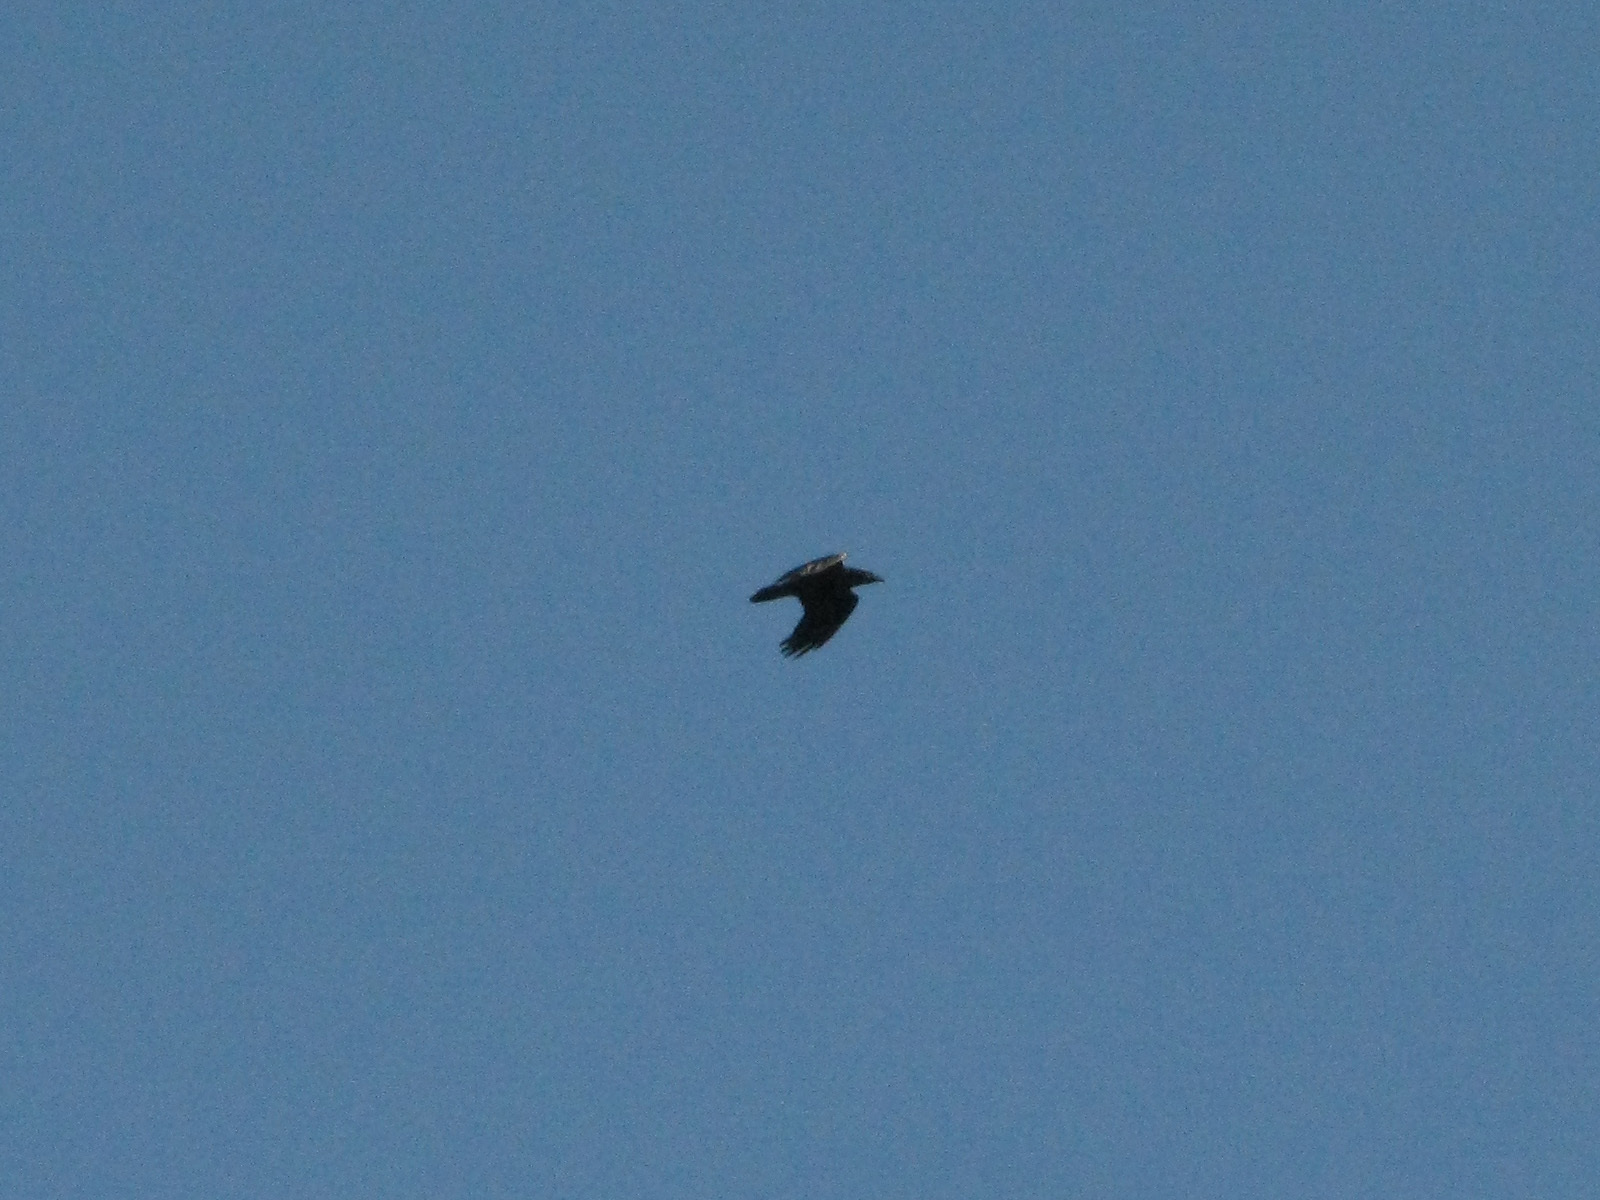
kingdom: Animalia
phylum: Chordata
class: Aves
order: Passeriformes
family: Corvidae
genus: Corvus
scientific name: Corvus corax
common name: Common raven
